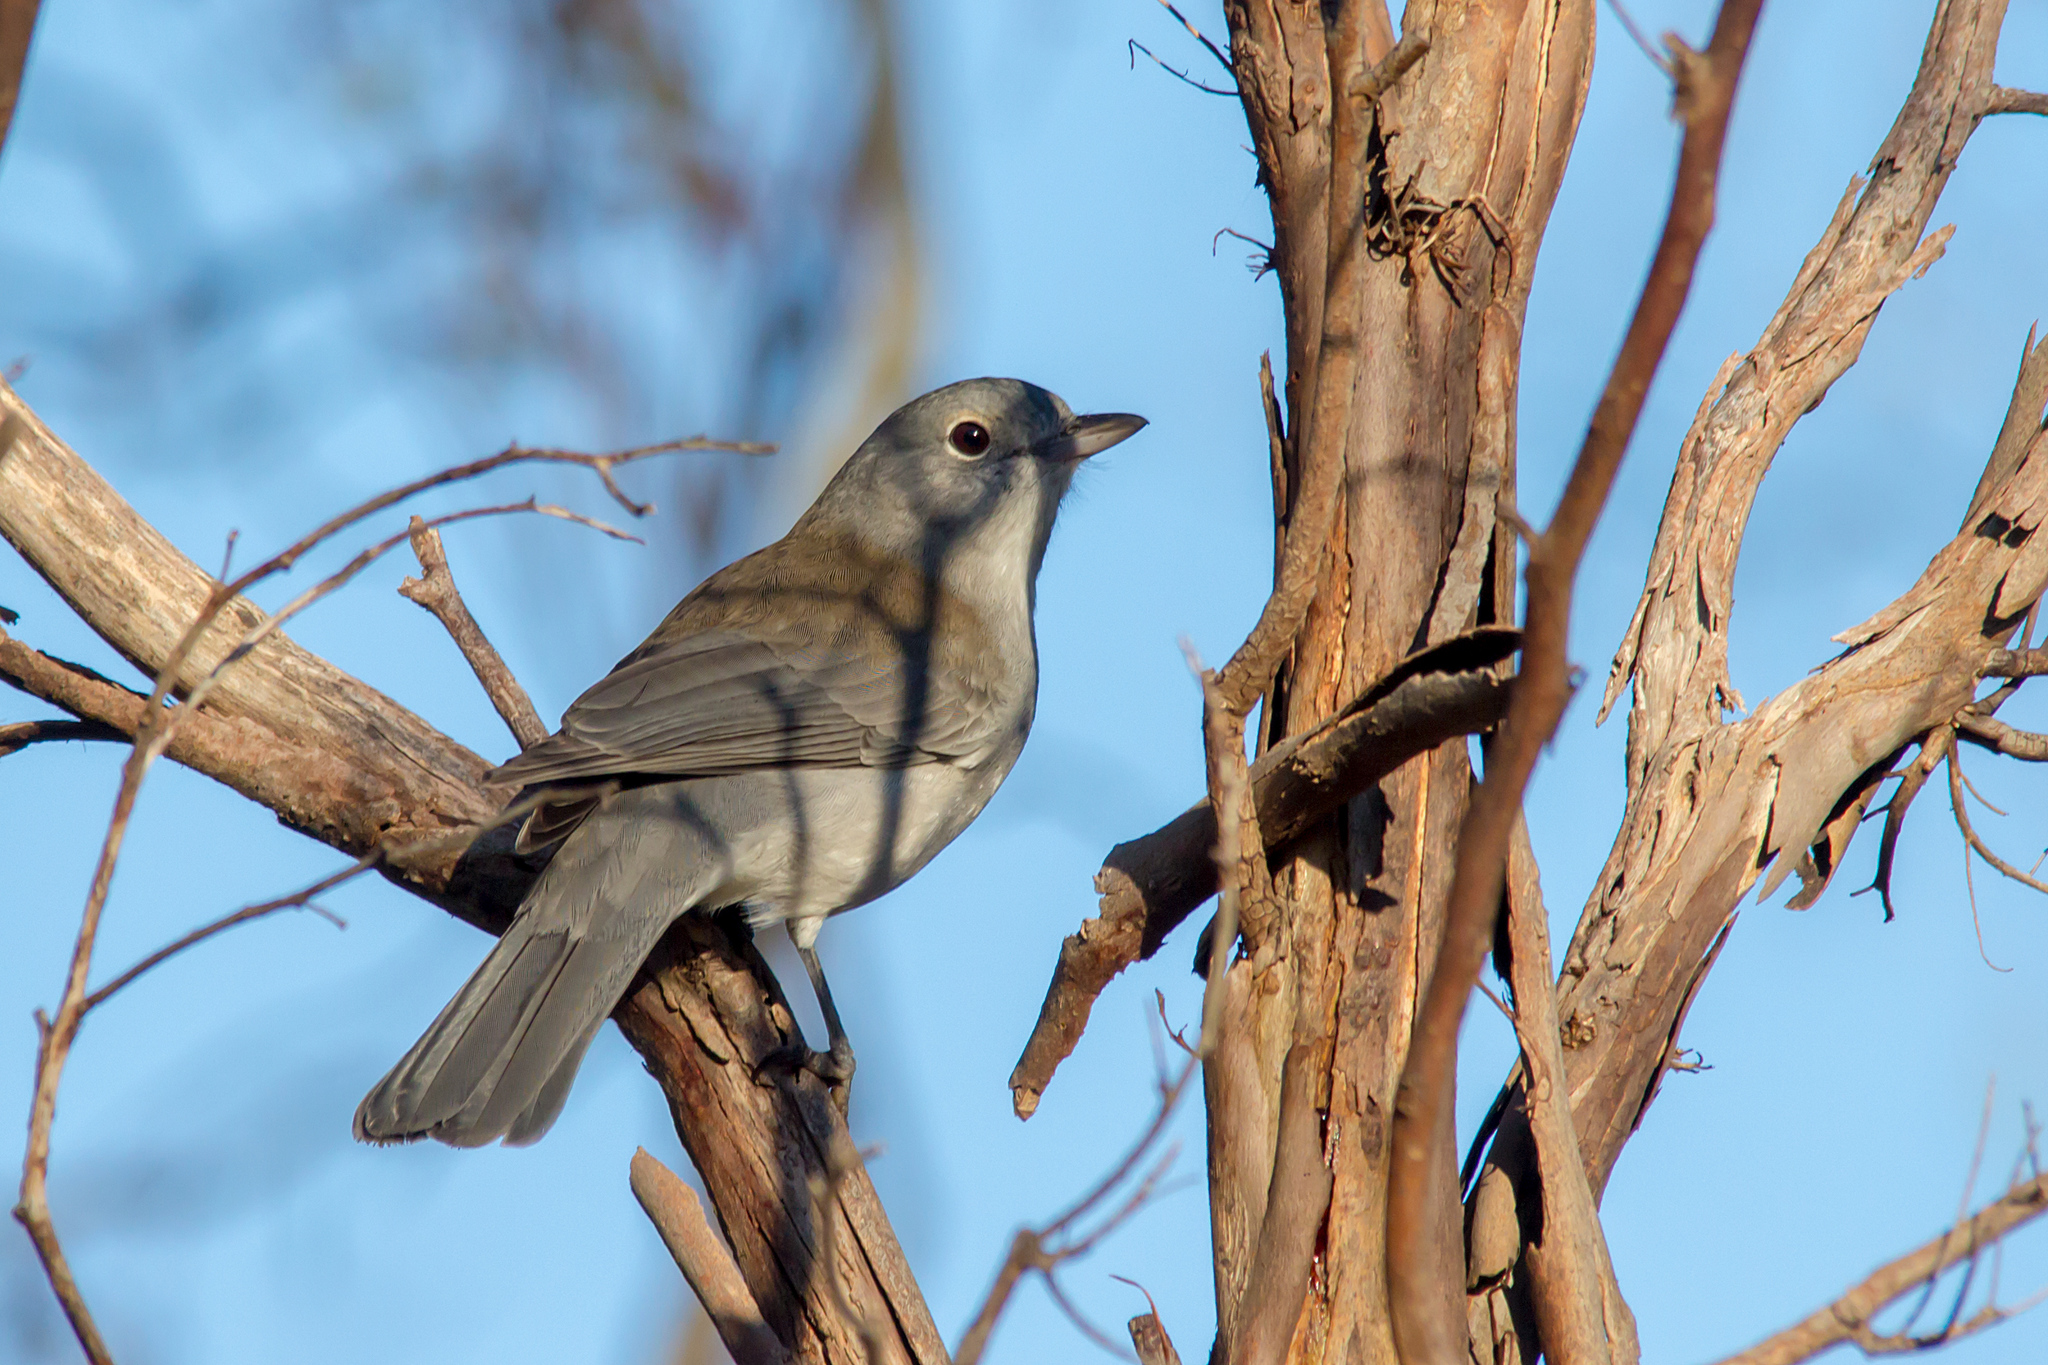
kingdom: Animalia
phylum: Chordata
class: Aves
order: Passeriformes
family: Pachycephalidae
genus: Colluricincla
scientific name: Colluricincla harmonica
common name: Grey shrikethrush
